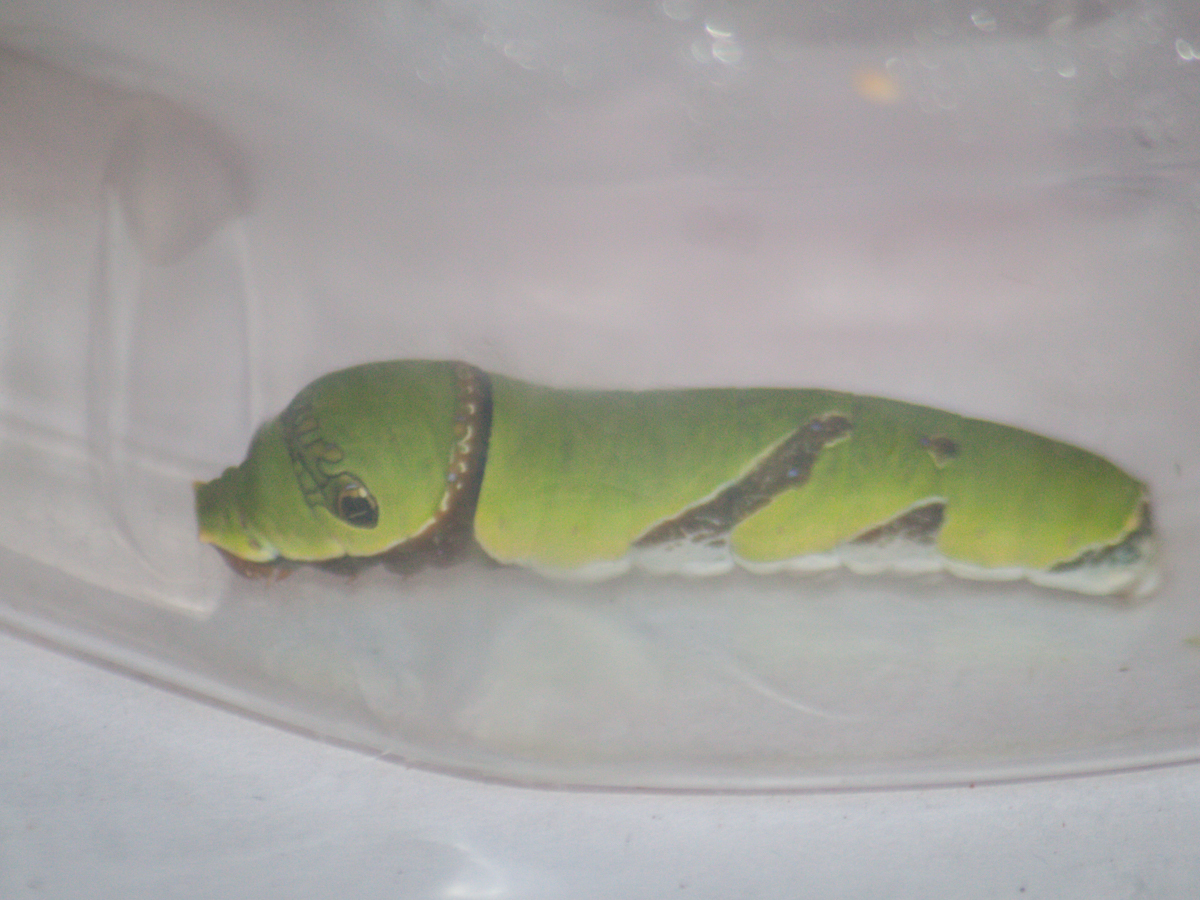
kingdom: Animalia
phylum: Arthropoda
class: Insecta
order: Lepidoptera
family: Papilionidae
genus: Papilio
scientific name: Papilio polytes
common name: Common mormon
